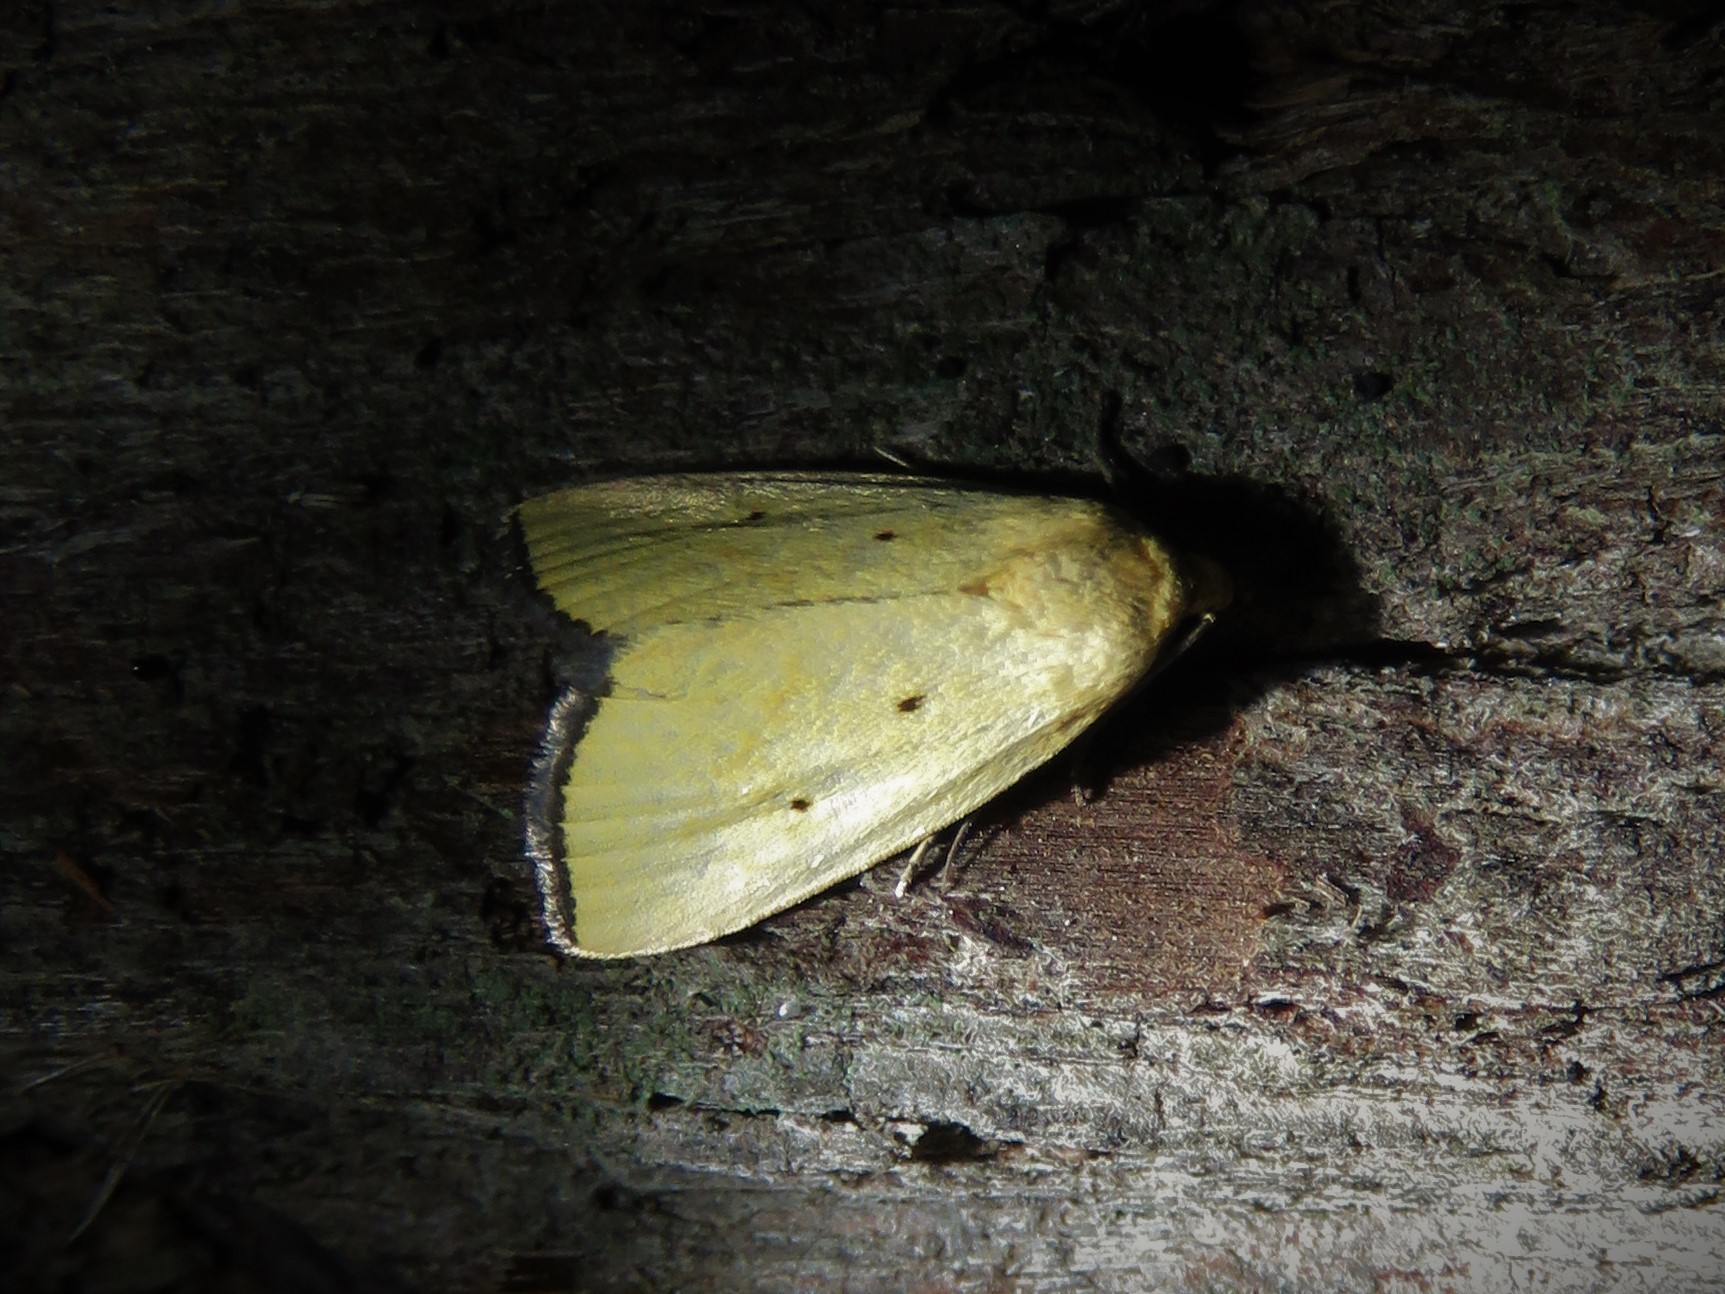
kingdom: Animalia
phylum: Arthropoda
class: Insecta
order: Lepidoptera
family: Noctuidae
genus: Marimatha
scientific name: Marimatha nigrofimbria
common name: Black-bordered lemon moth
